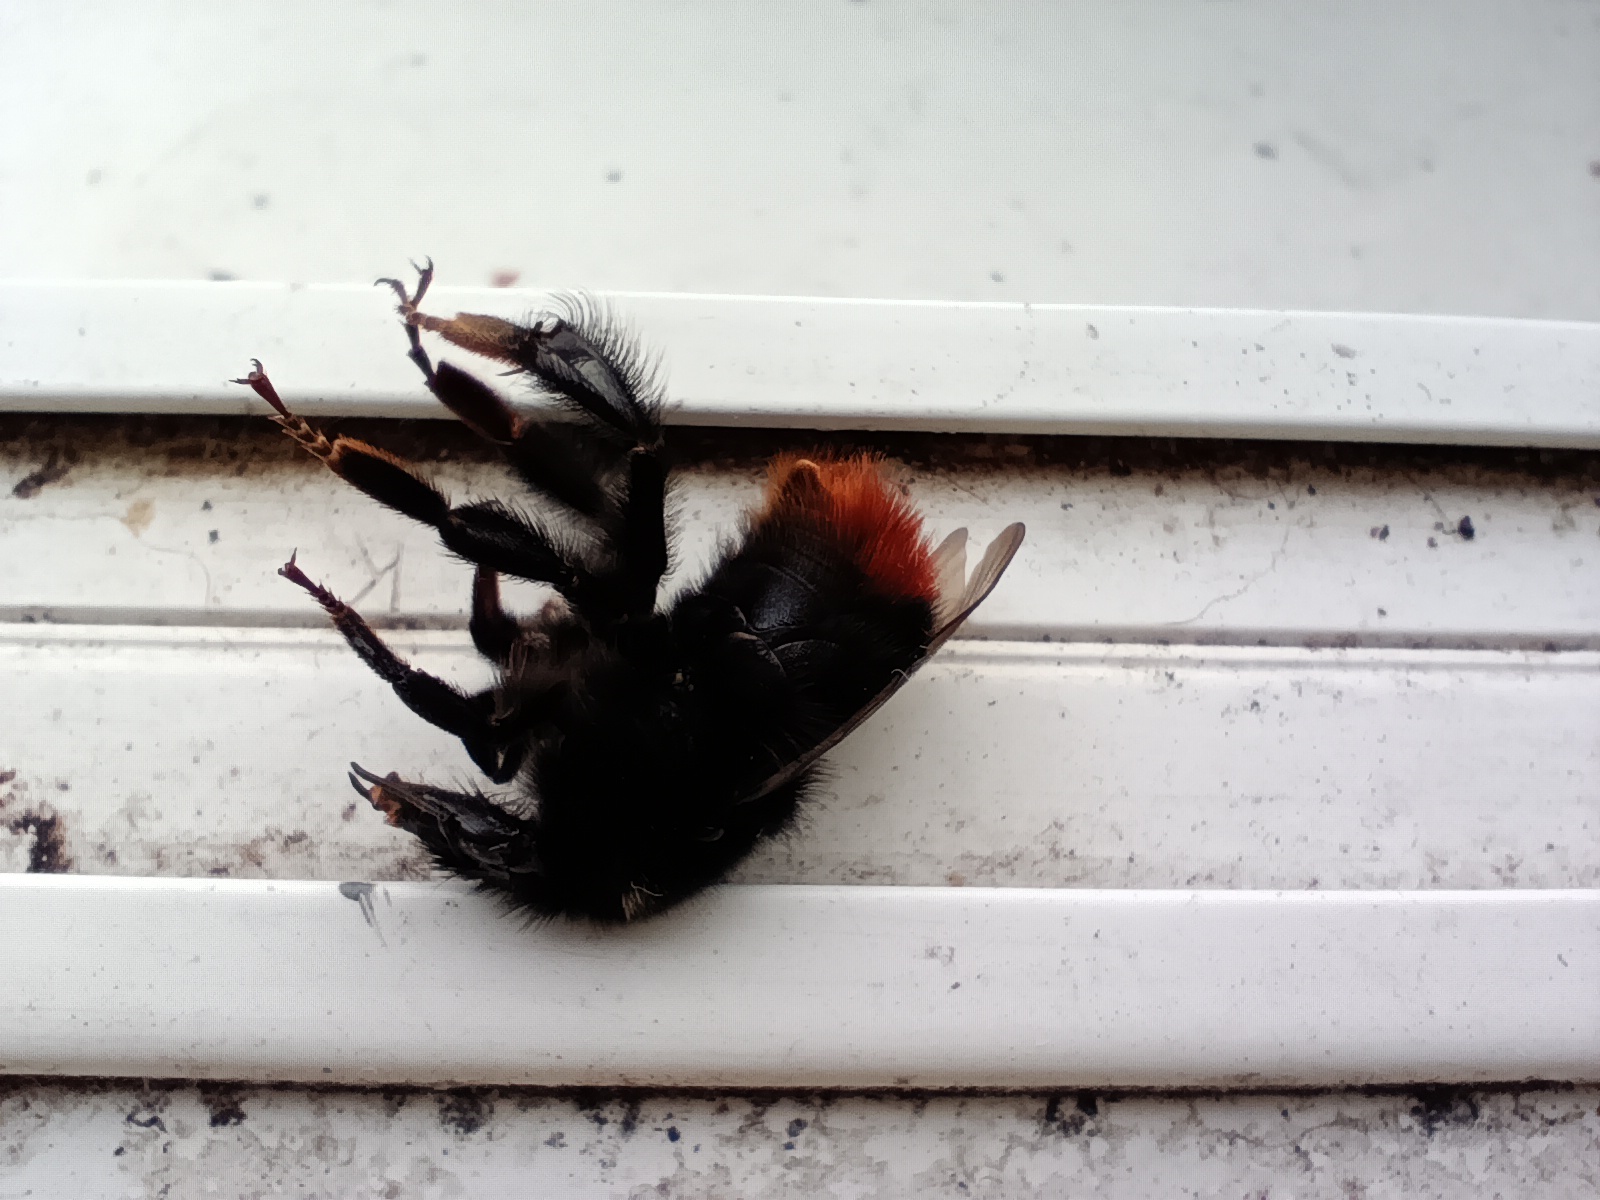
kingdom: Animalia
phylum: Arthropoda
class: Insecta
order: Hymenoptera
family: Apidae
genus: Bombus
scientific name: Bombus lapidarius
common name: Large red-tailed humble-bee
